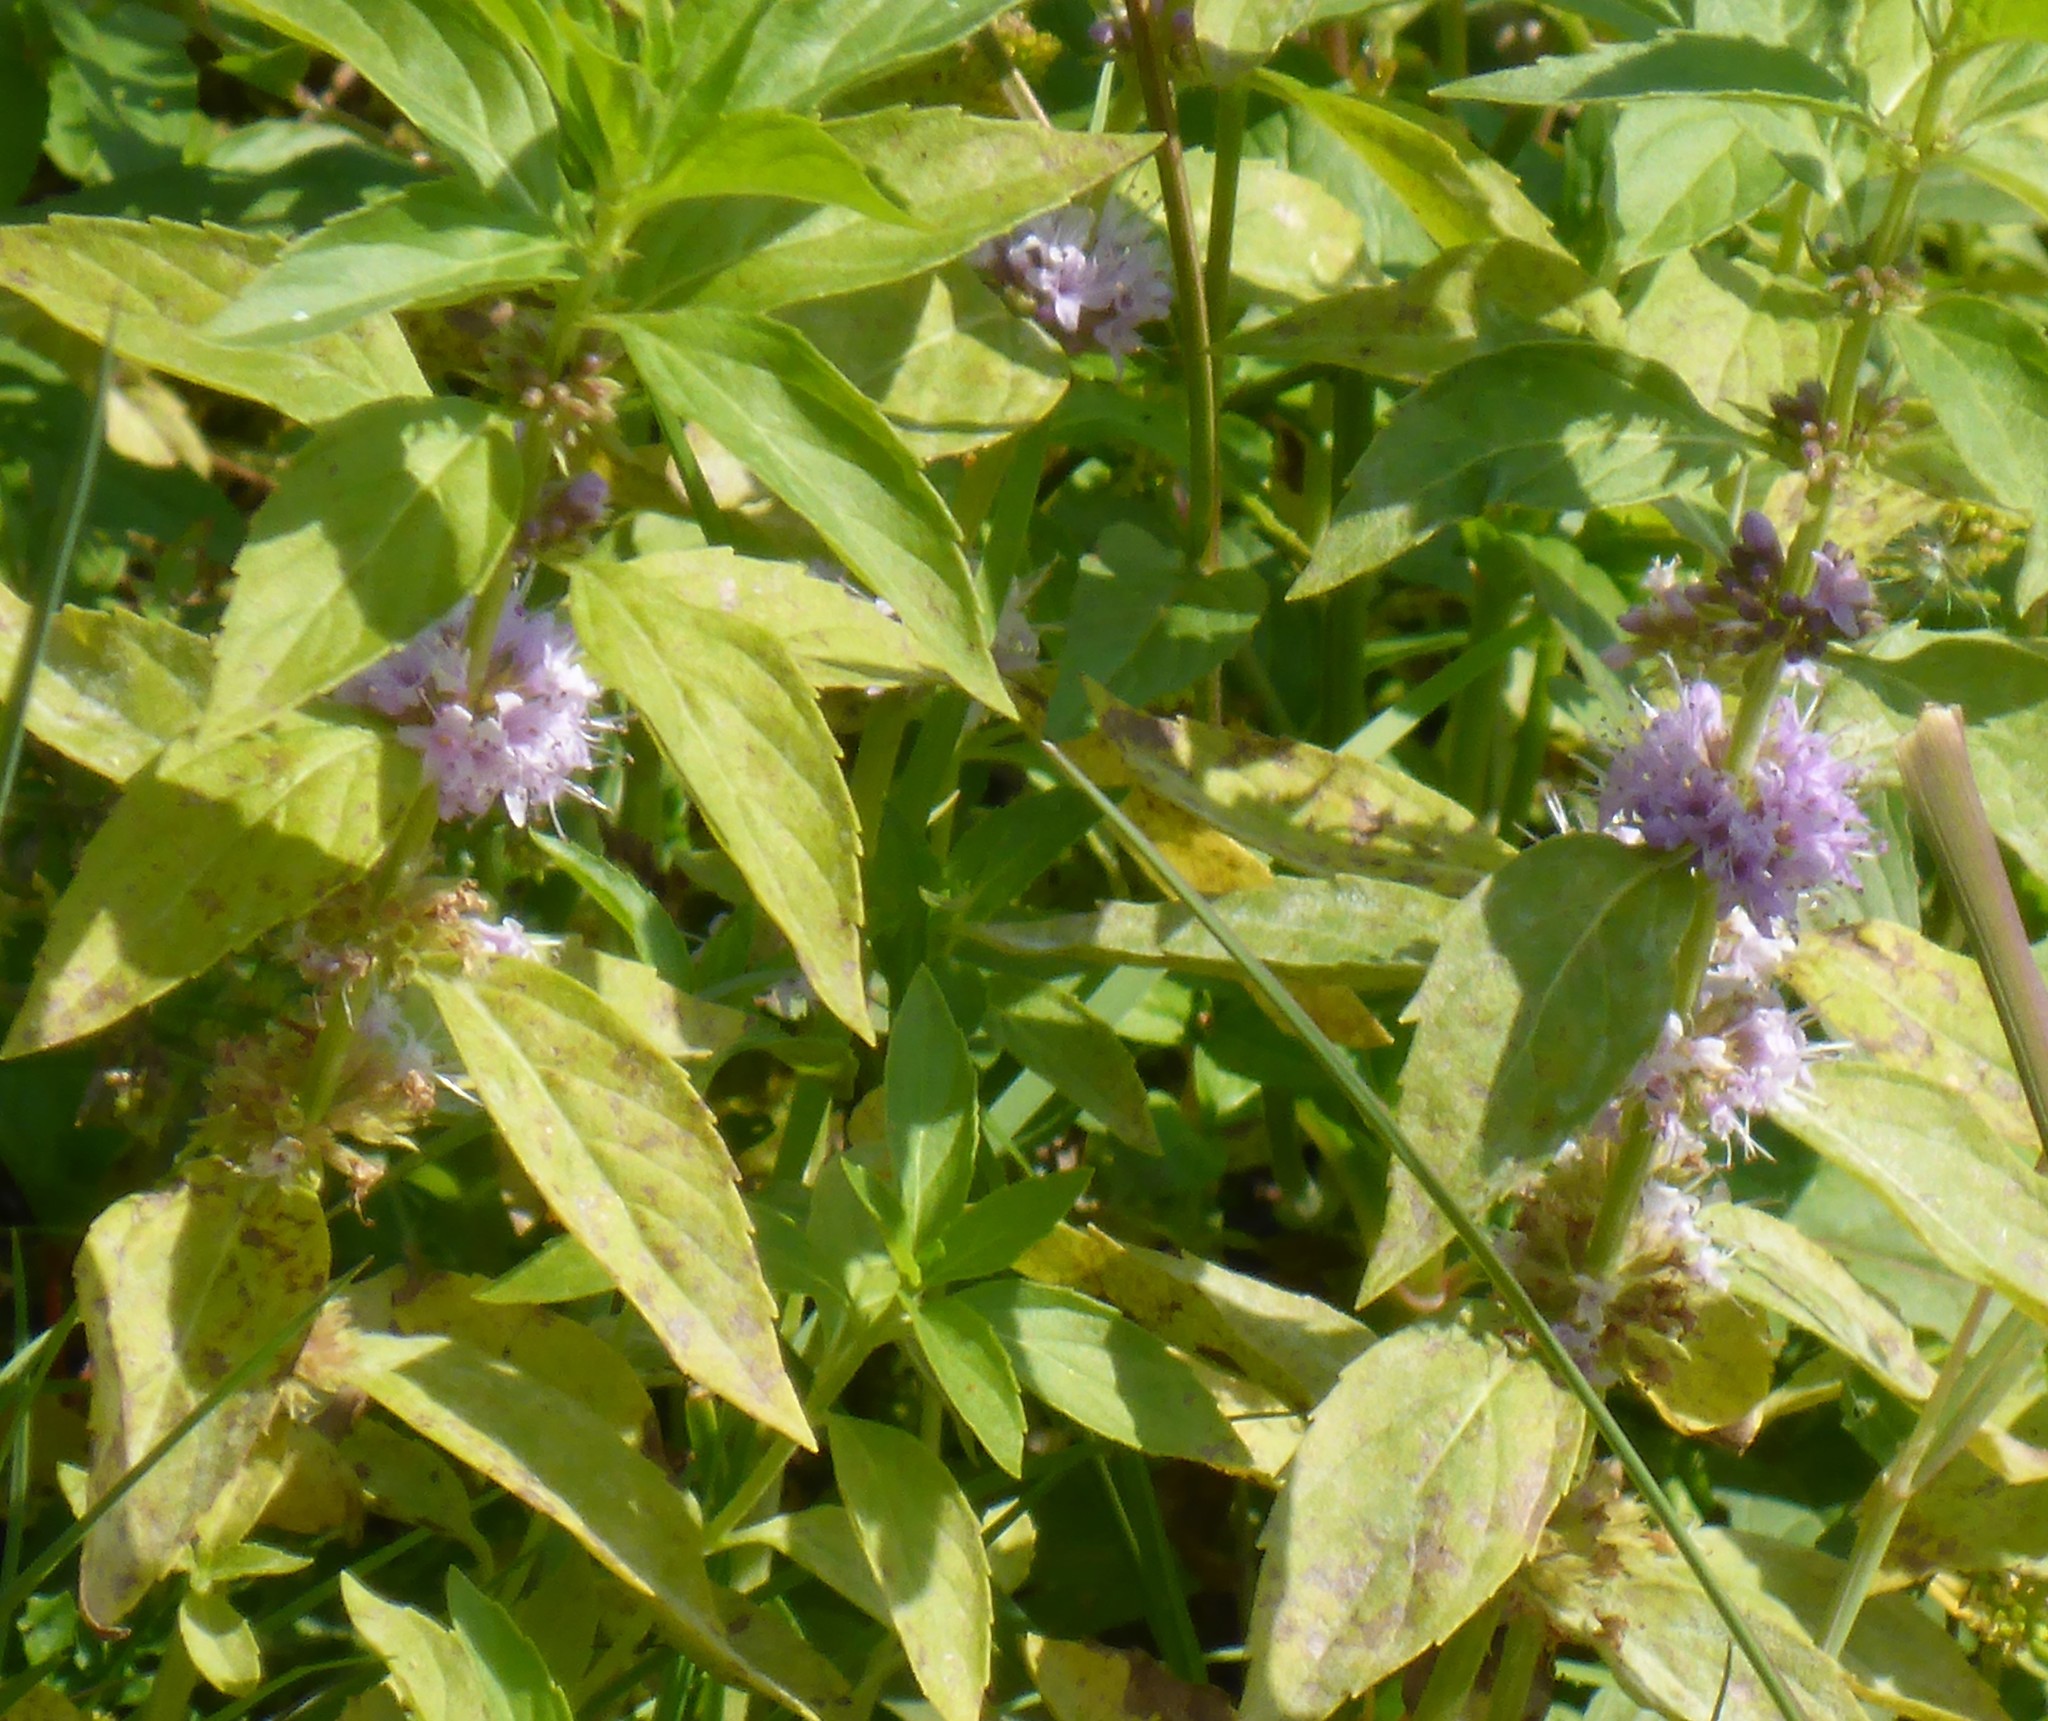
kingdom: Plantae
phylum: Tracheophyta
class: Magnoliopsida
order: Lamiales
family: Lamiaceae
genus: Mentha
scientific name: Mentha canadensis
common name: American corn mint
